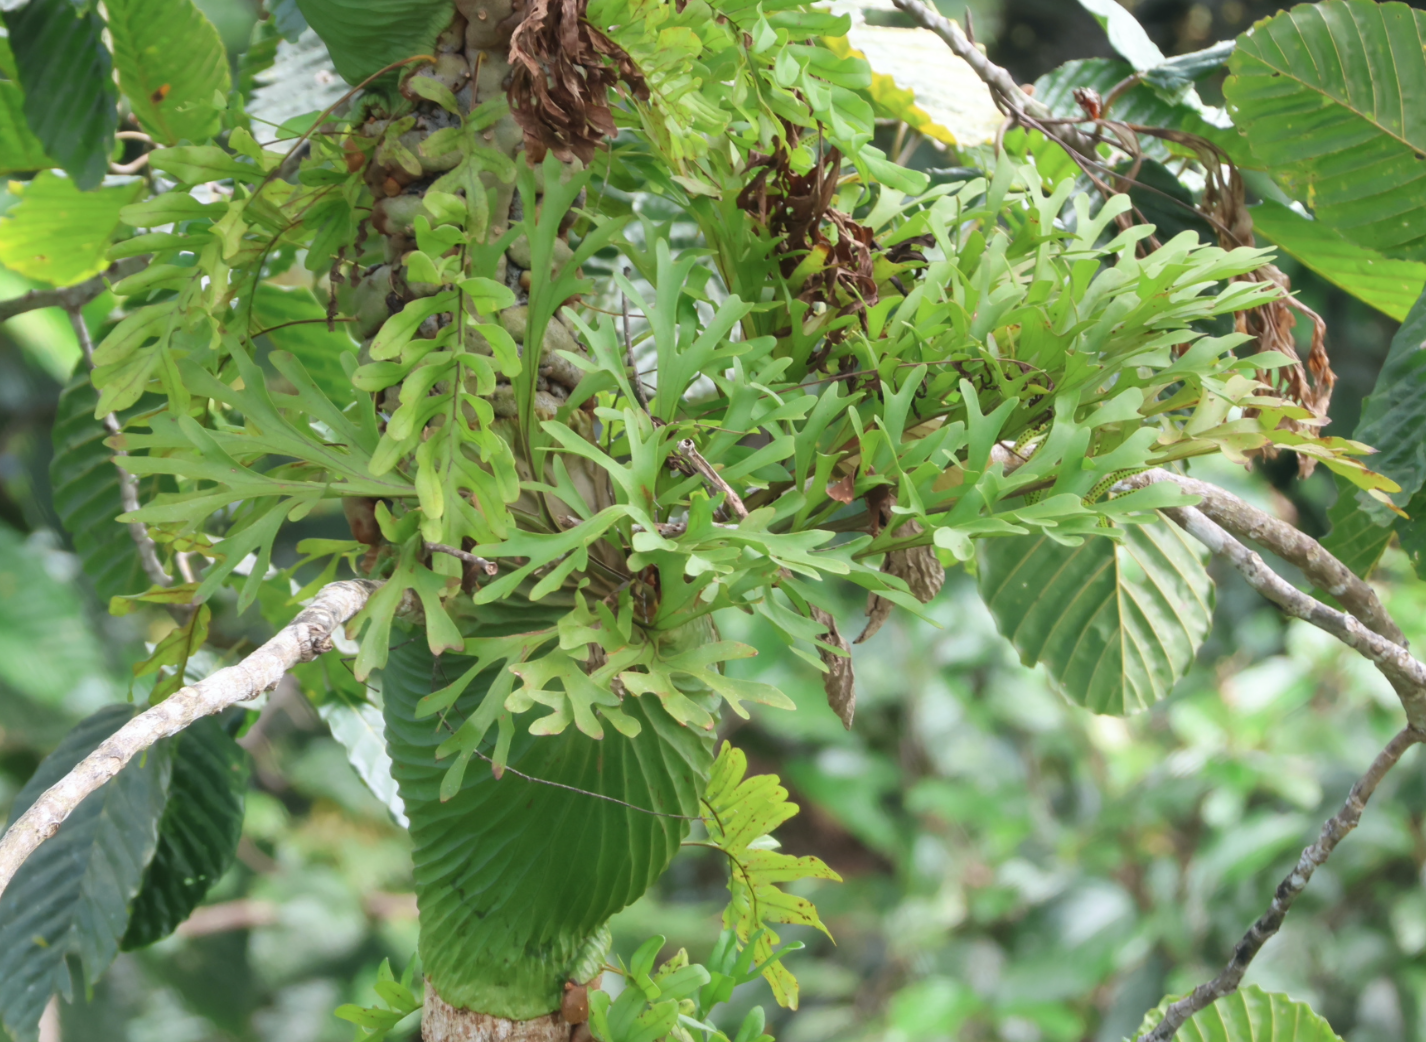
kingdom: Plantae
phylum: Tracheophyta
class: Polypodiopsida
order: Polypodiales
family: Polypodiaceae
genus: Platycerium
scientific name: Platycerium ridleyi
